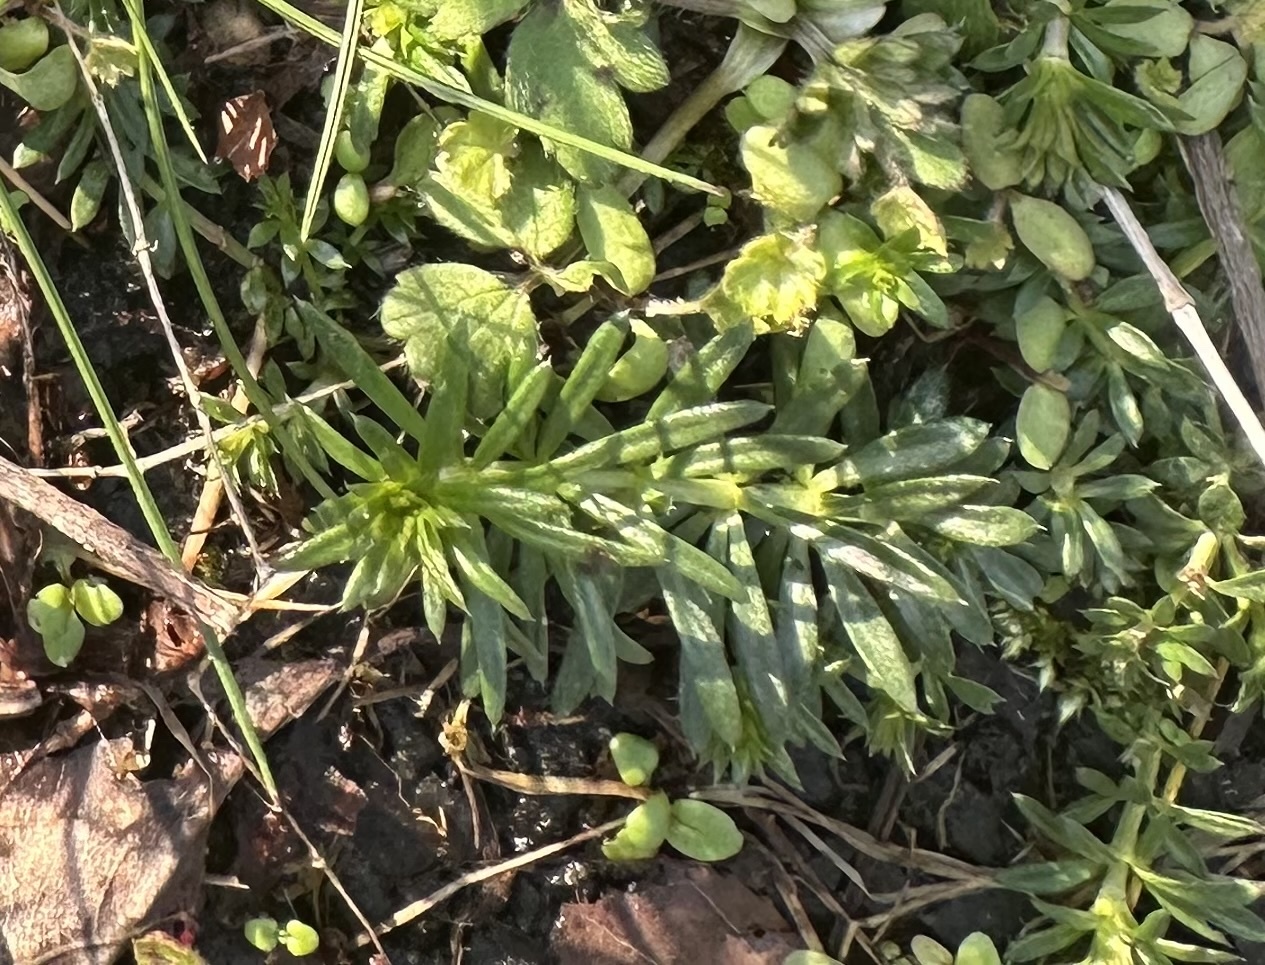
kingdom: Plantae
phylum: Tracheophyta
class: Magnoliopsida
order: Gentianales
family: Rubiaceae
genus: Galium
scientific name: Galium verum
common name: Lady's bedstraw
